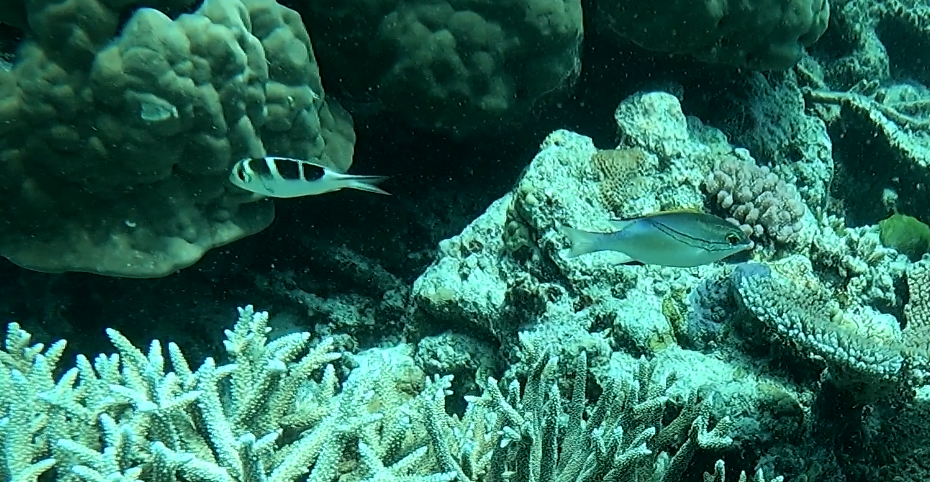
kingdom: Animalia
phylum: Chordata
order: Perciformes
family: Nemipteridae
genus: Scolopsis
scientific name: Scolopsis bilineata
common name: Two-lined monocle bream
